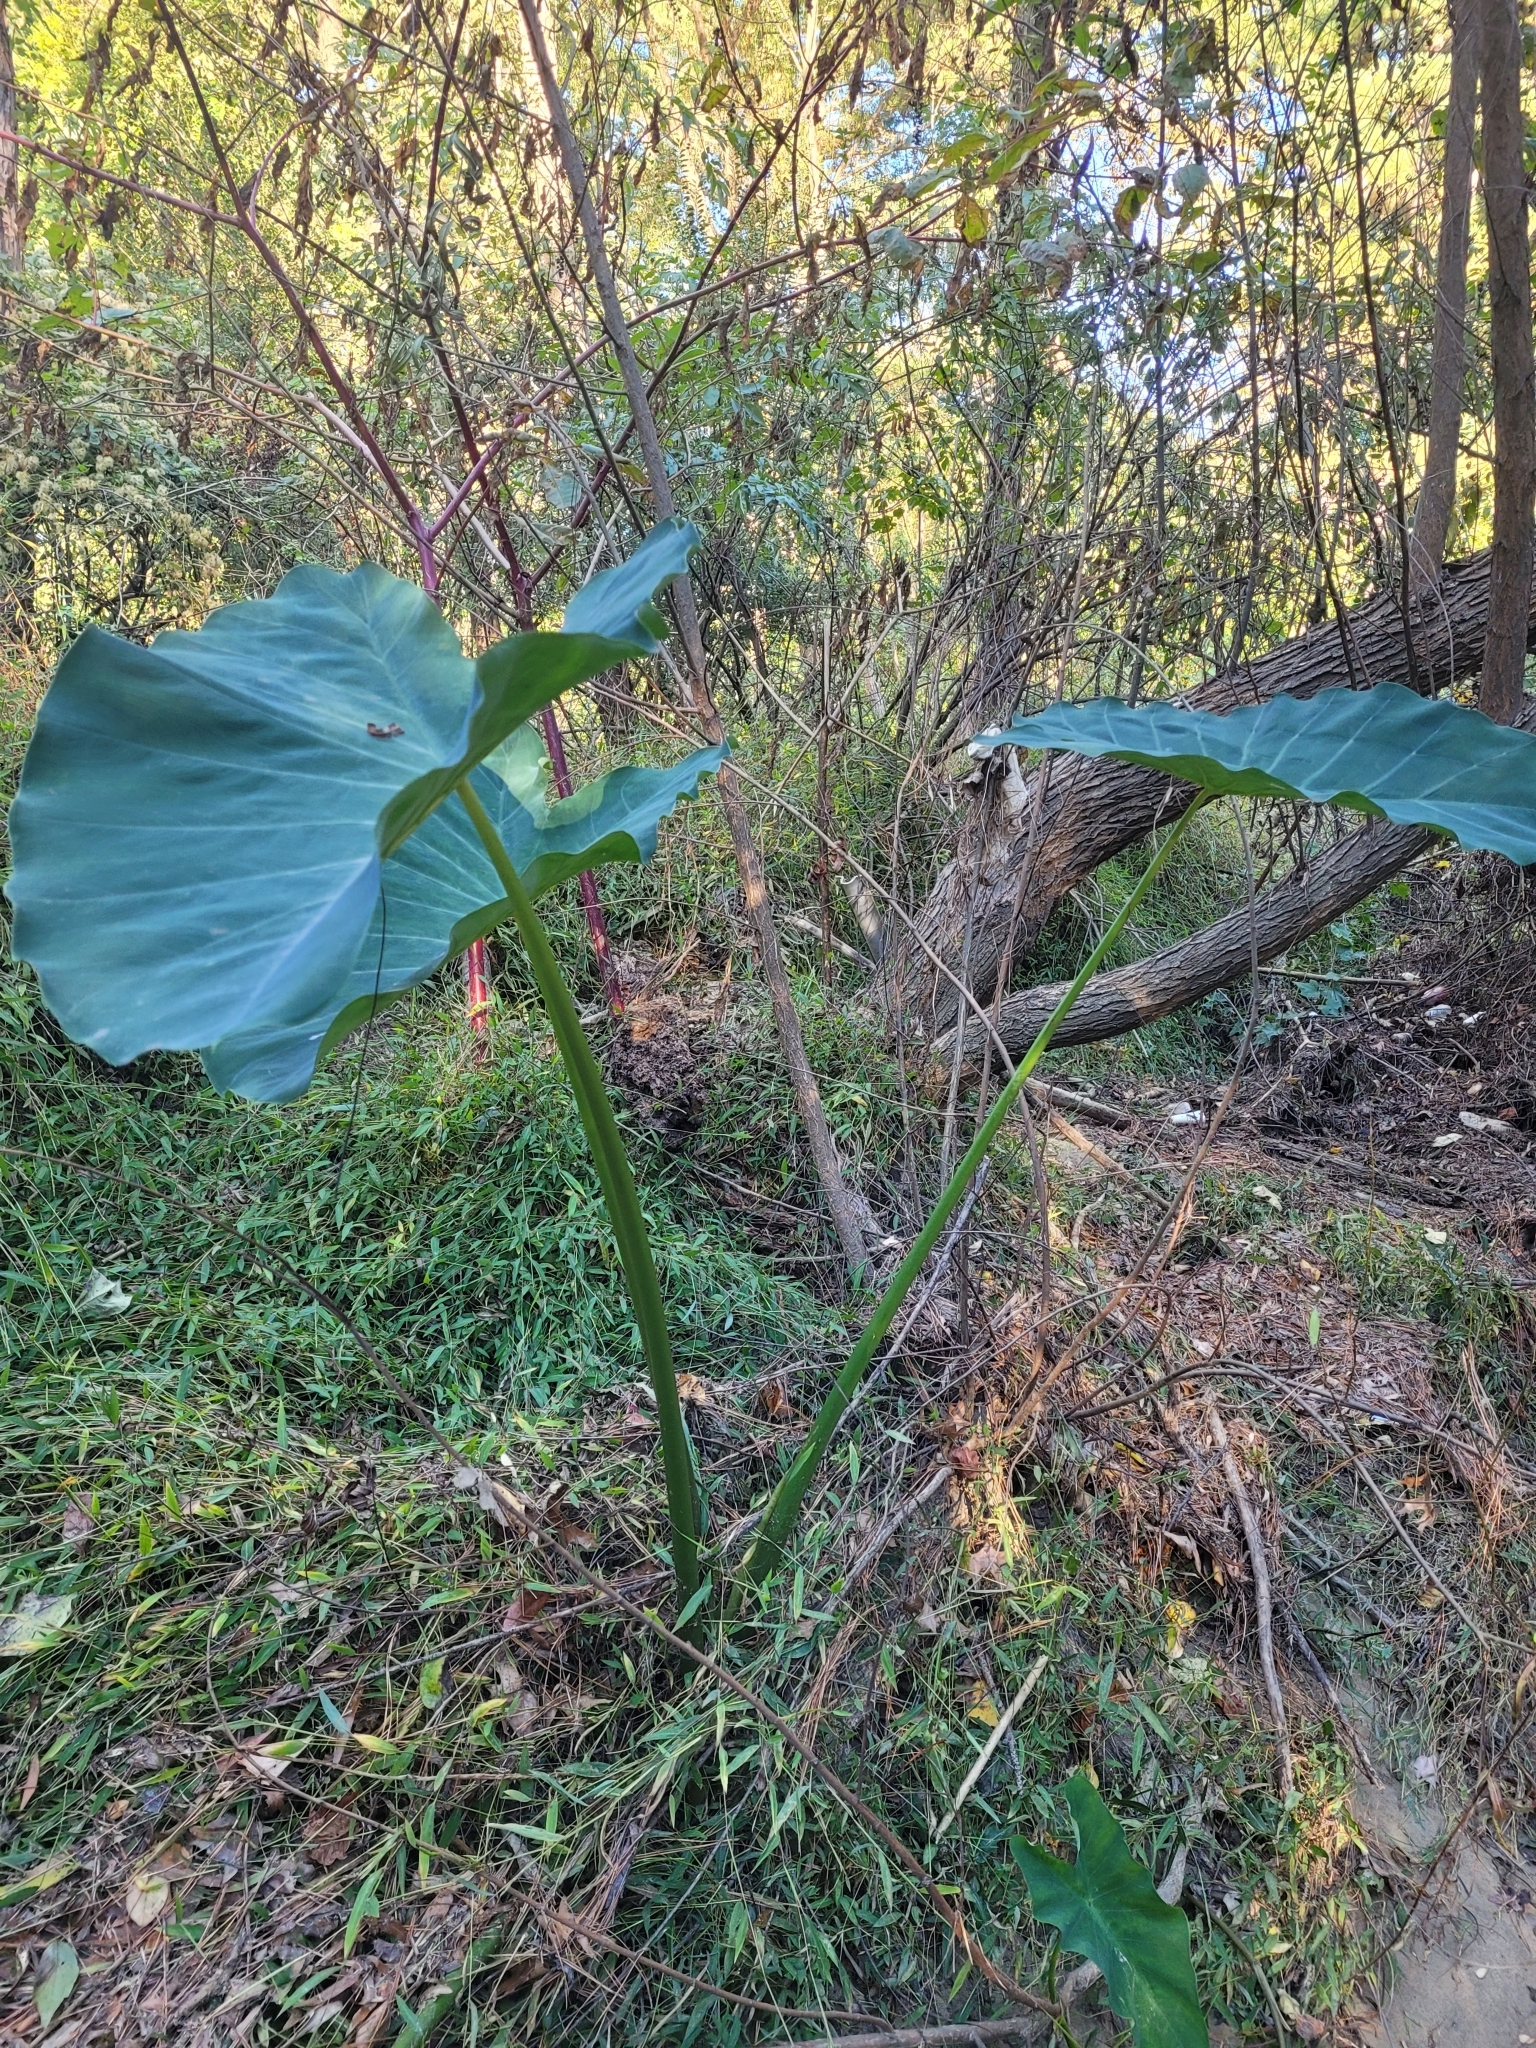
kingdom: Plantae
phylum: Tracheophyta
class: Liliopsida
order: Alismatales
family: Araceae
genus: Colocasia
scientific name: Colocasia esculenta
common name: Taro
